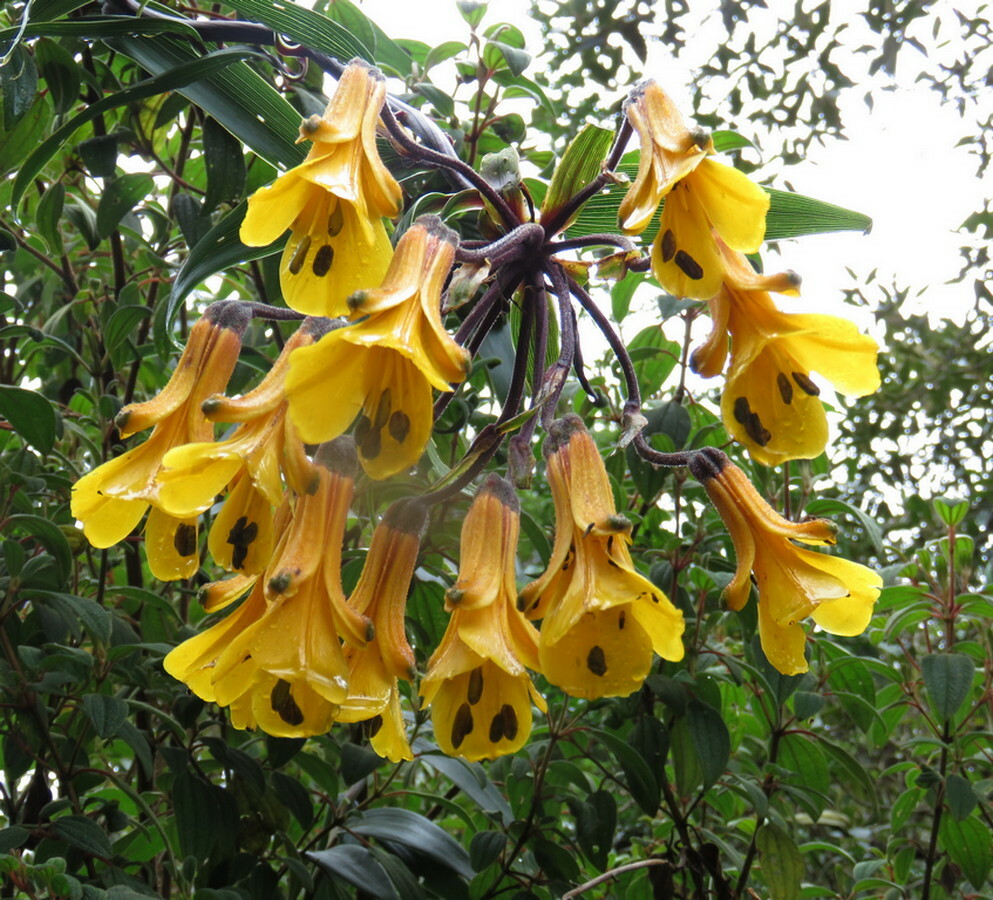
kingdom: Plantae
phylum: Tracheophyta
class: Liliopsida
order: Liliales
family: Alstroemeriaceae
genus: Bomarea
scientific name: Bomarea lutea
